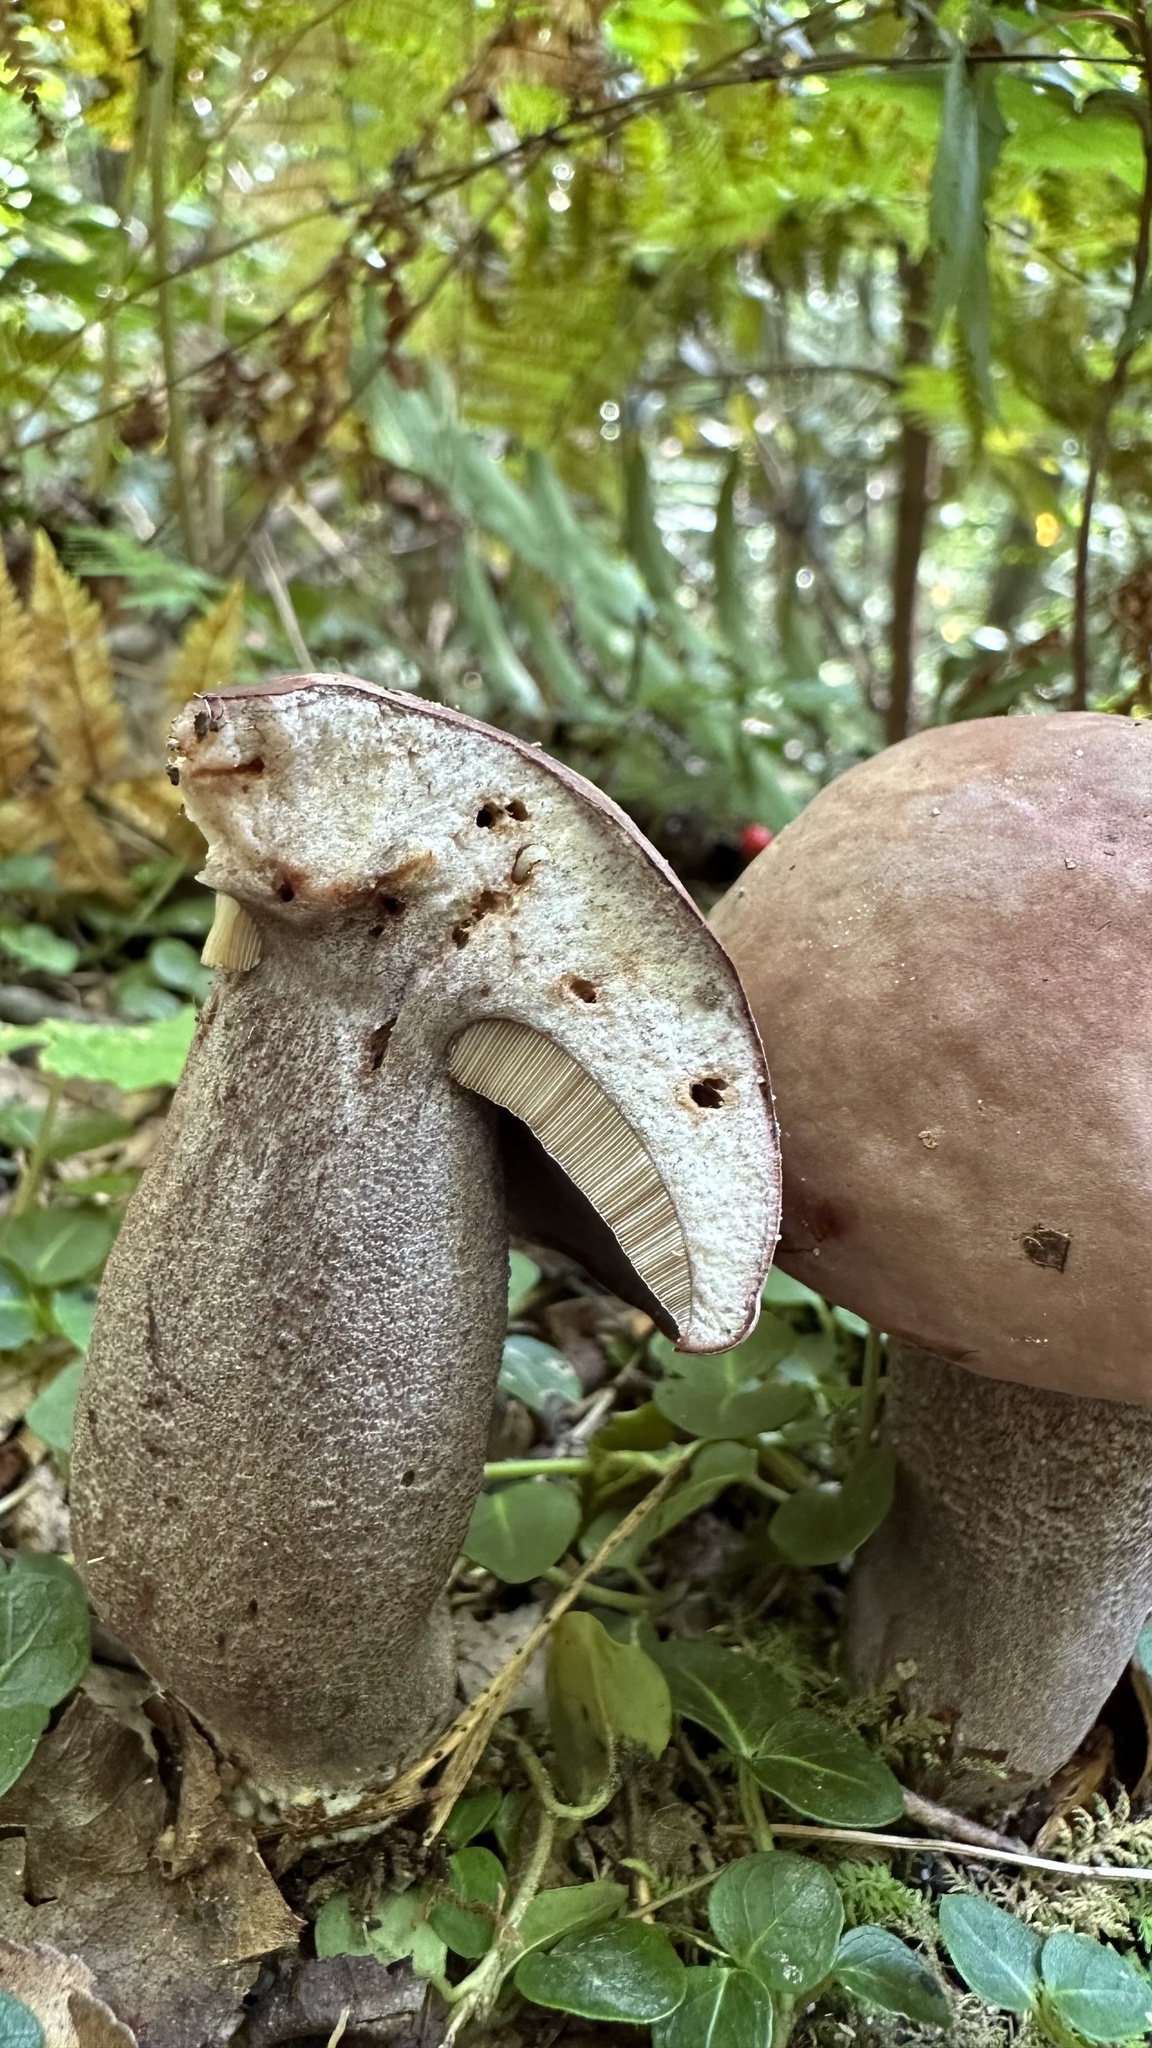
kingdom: Fungi
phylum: Basidiomycota
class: Agaricomycetes
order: Boletales
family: Boletaceae
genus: Sutorius
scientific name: Sutorius eximius
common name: Lilac-brown bolete
